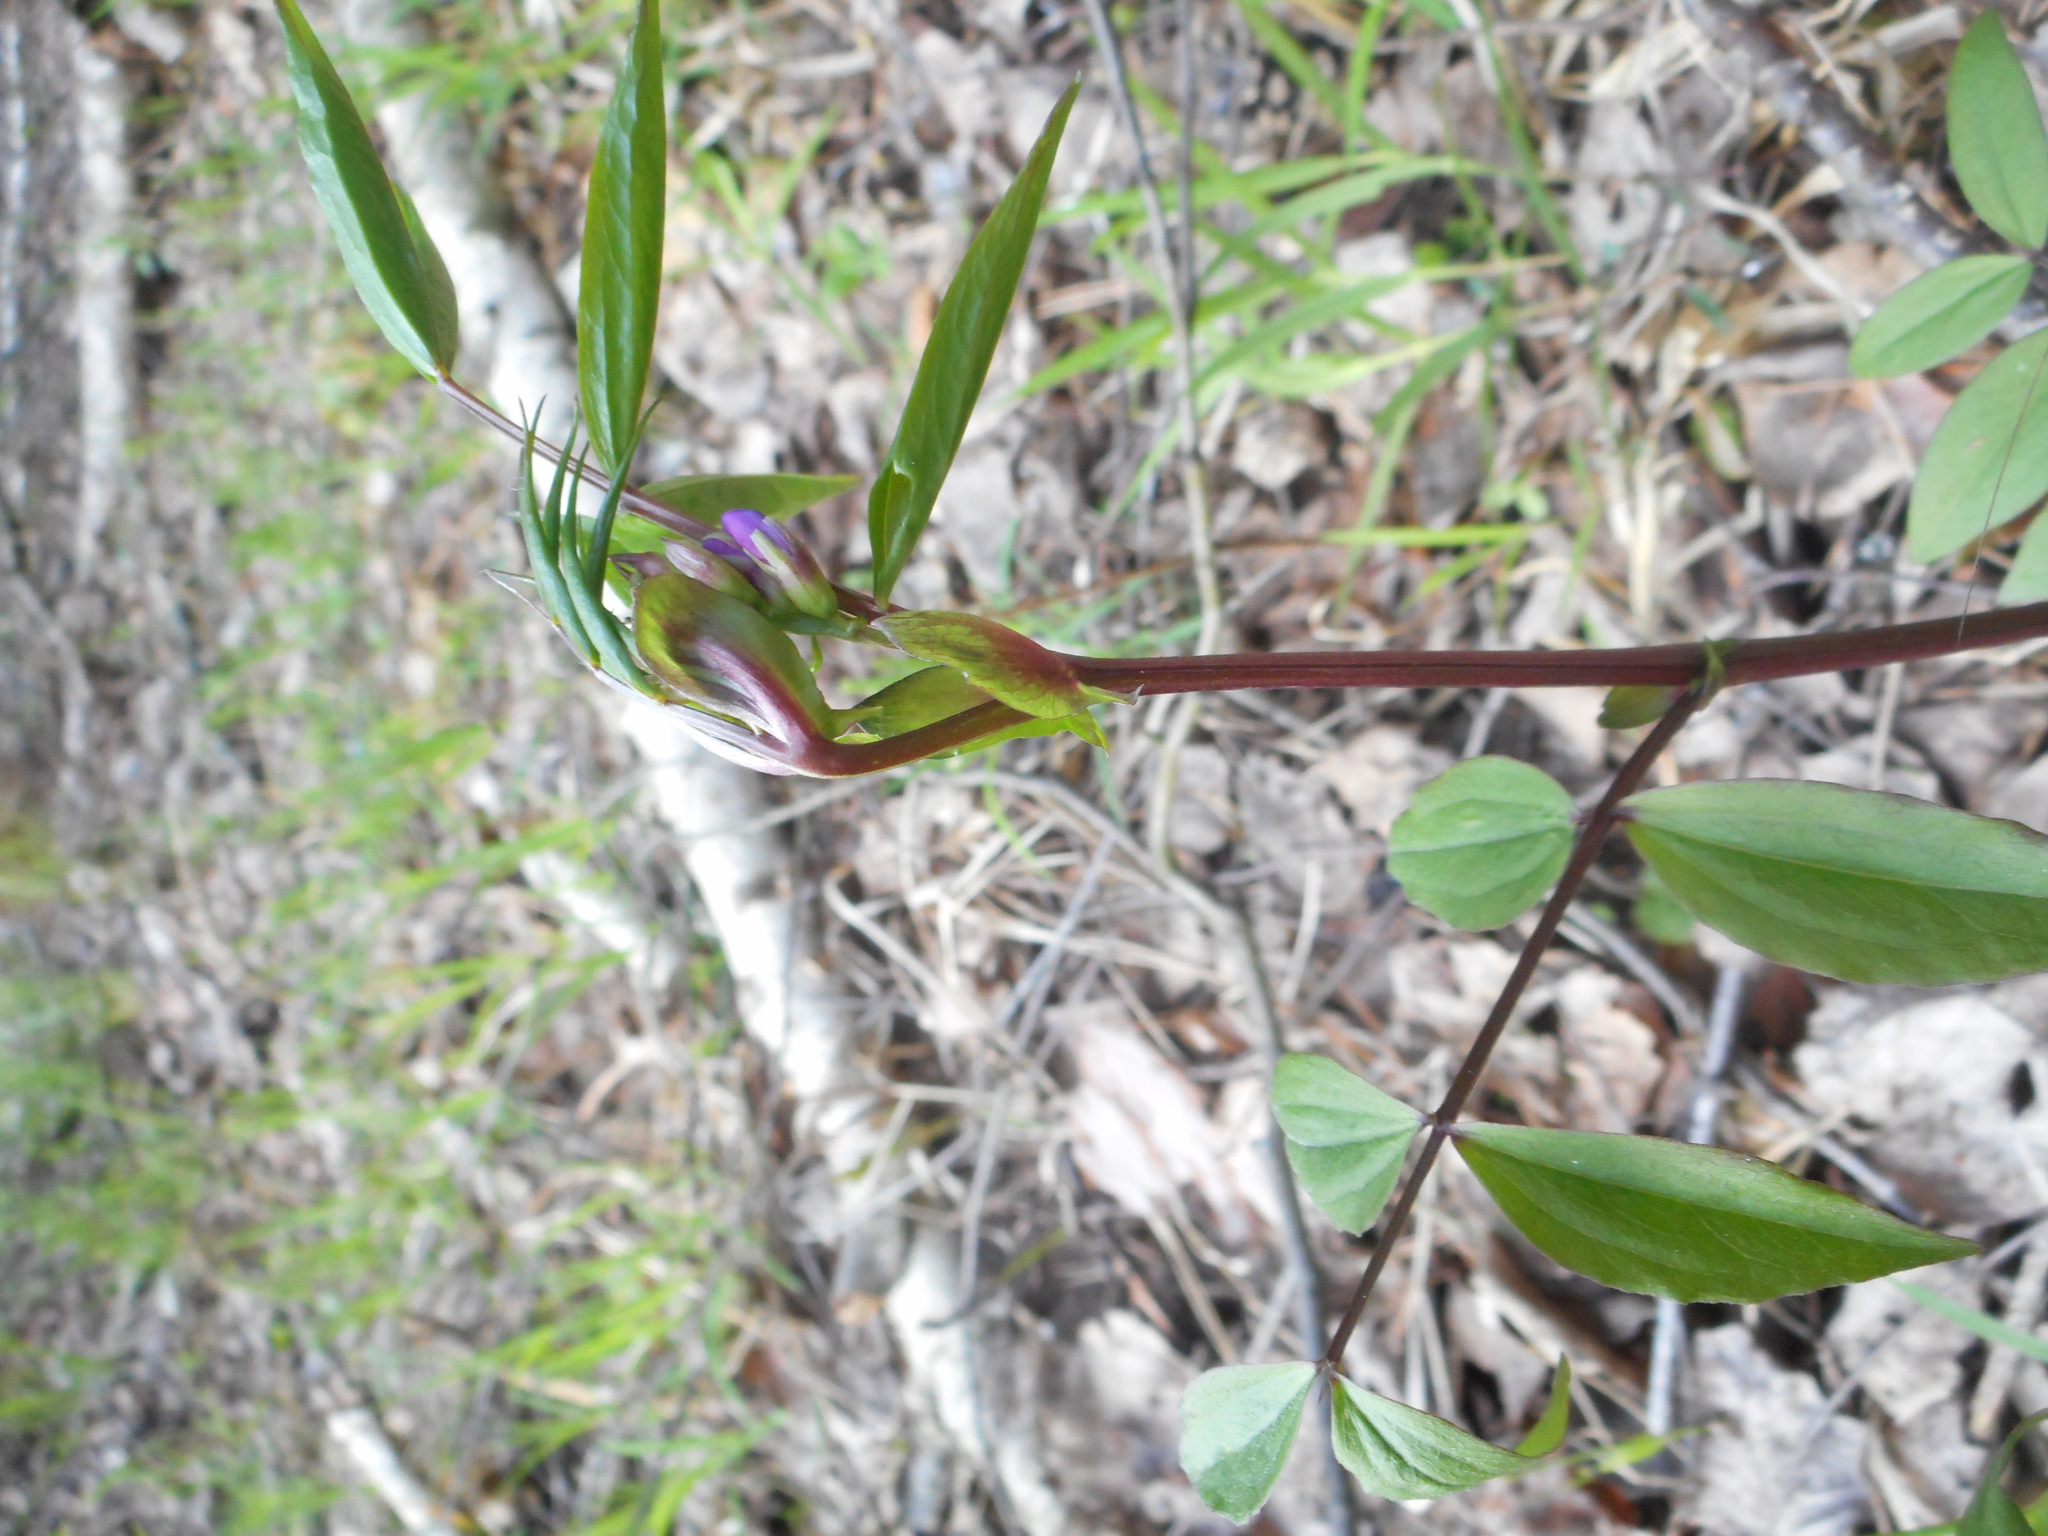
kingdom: Plantae
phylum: Tracheophyta
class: Magnoliopsida
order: Fabales
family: Fabaceae
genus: Lathyrus
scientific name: Lathyrus vernus
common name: Spring pea
